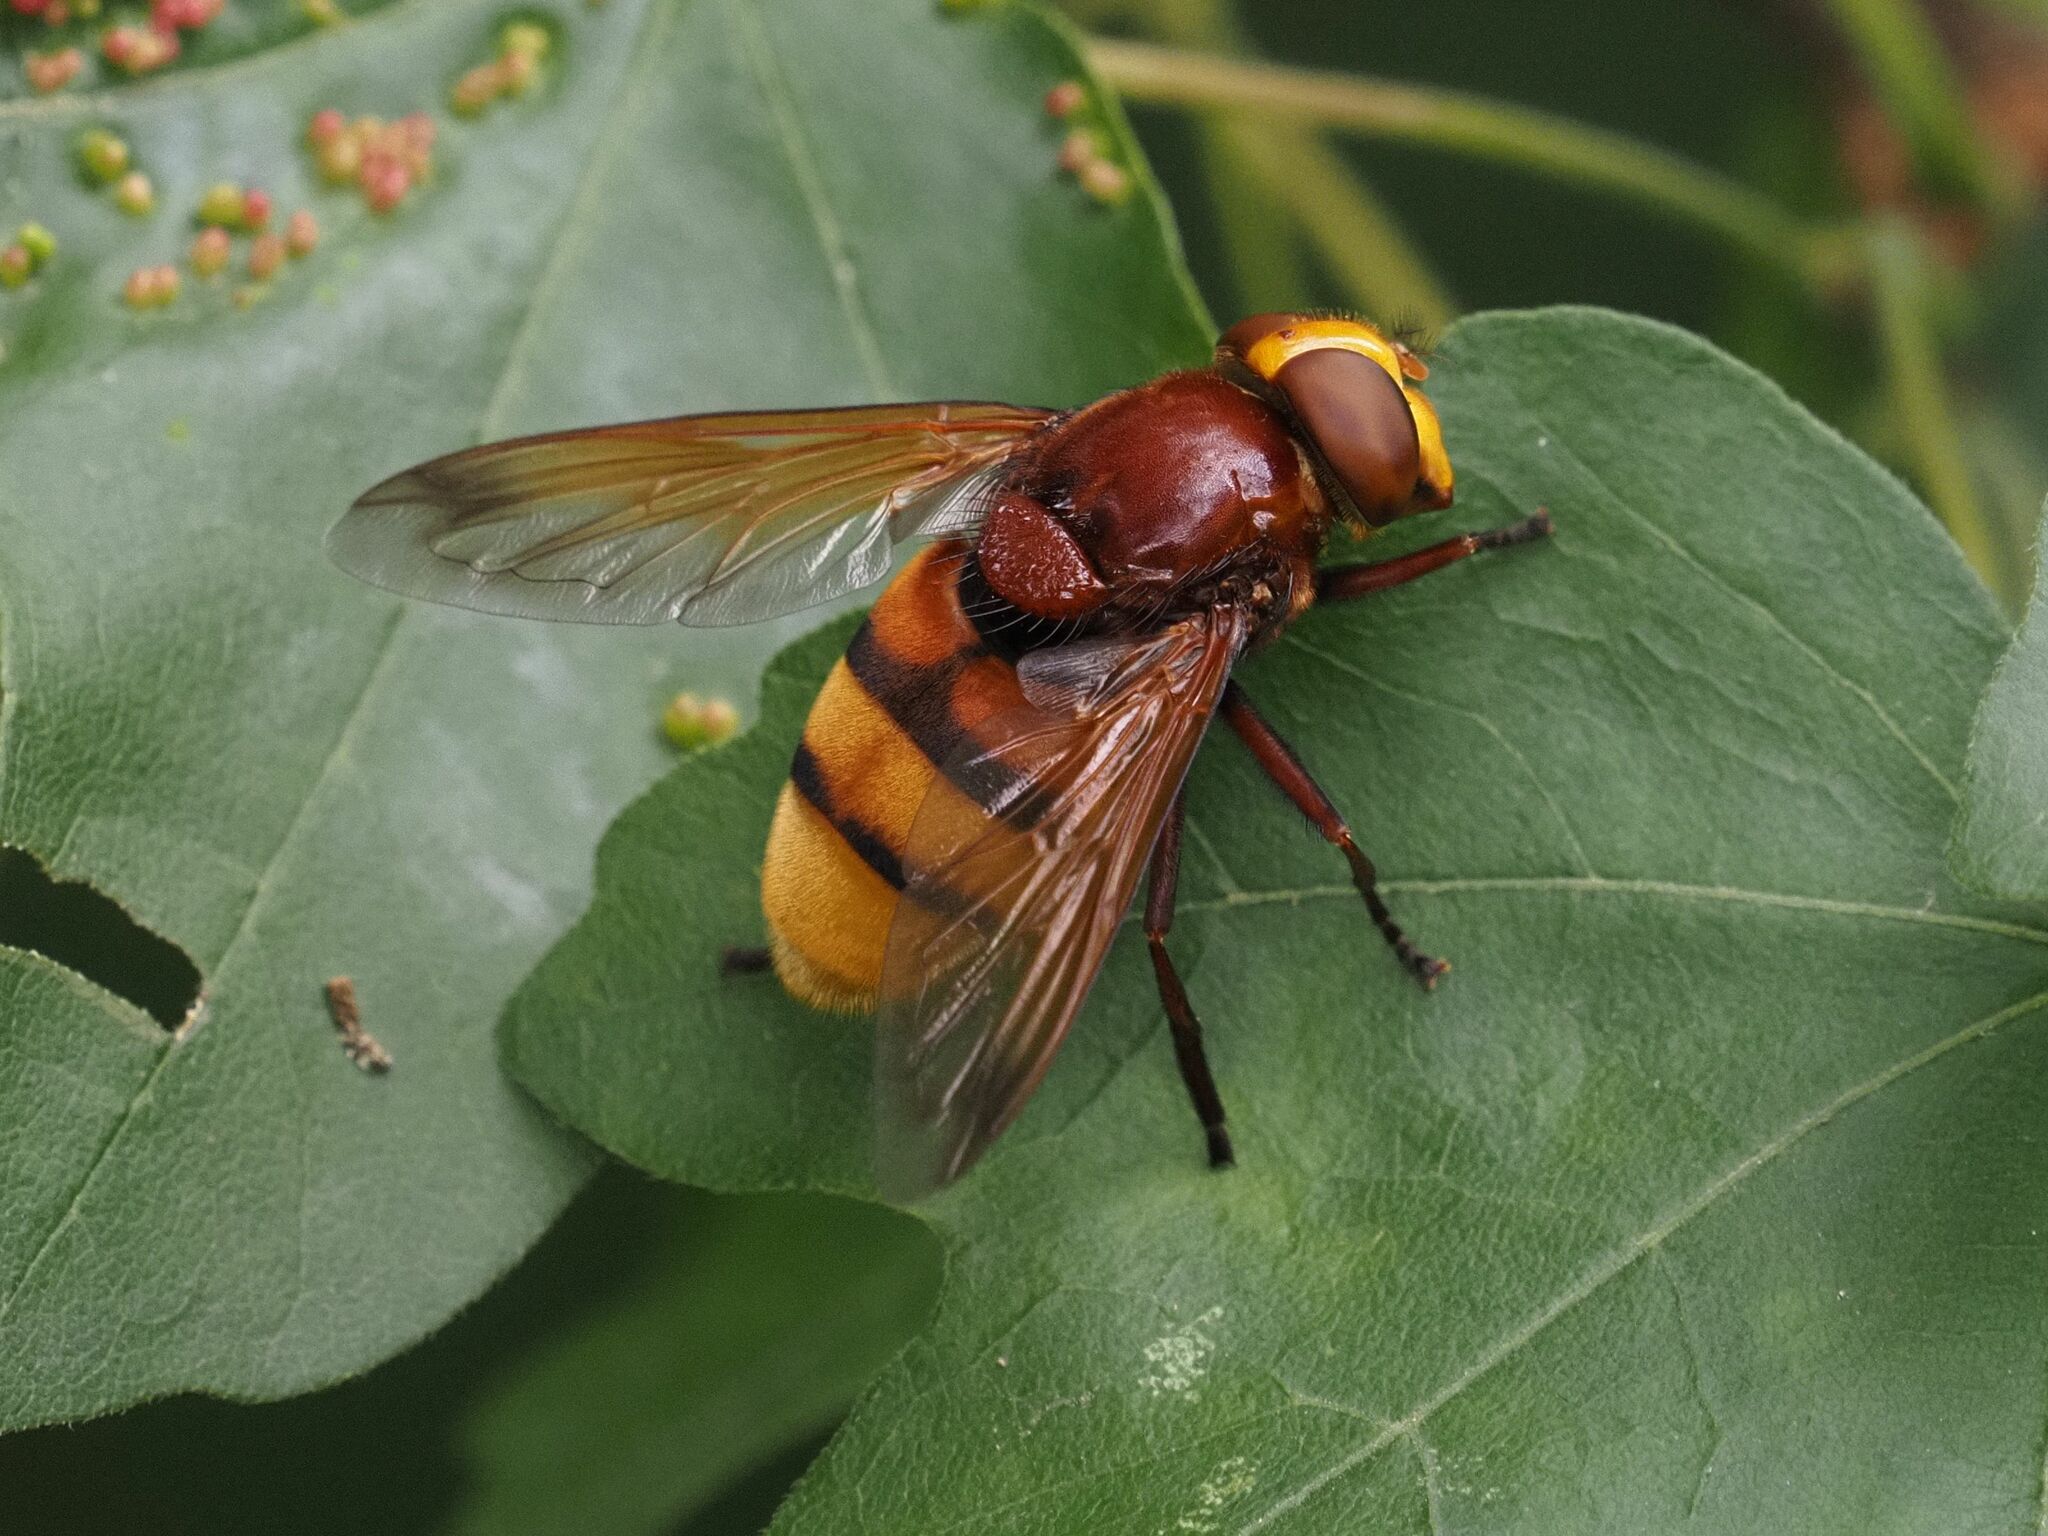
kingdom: Animalia
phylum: Arthropoda
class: Insecta
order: Diptera
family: Syrphidae
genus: Volucella
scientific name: Volucella zonaria
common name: Hornet hoverfly
